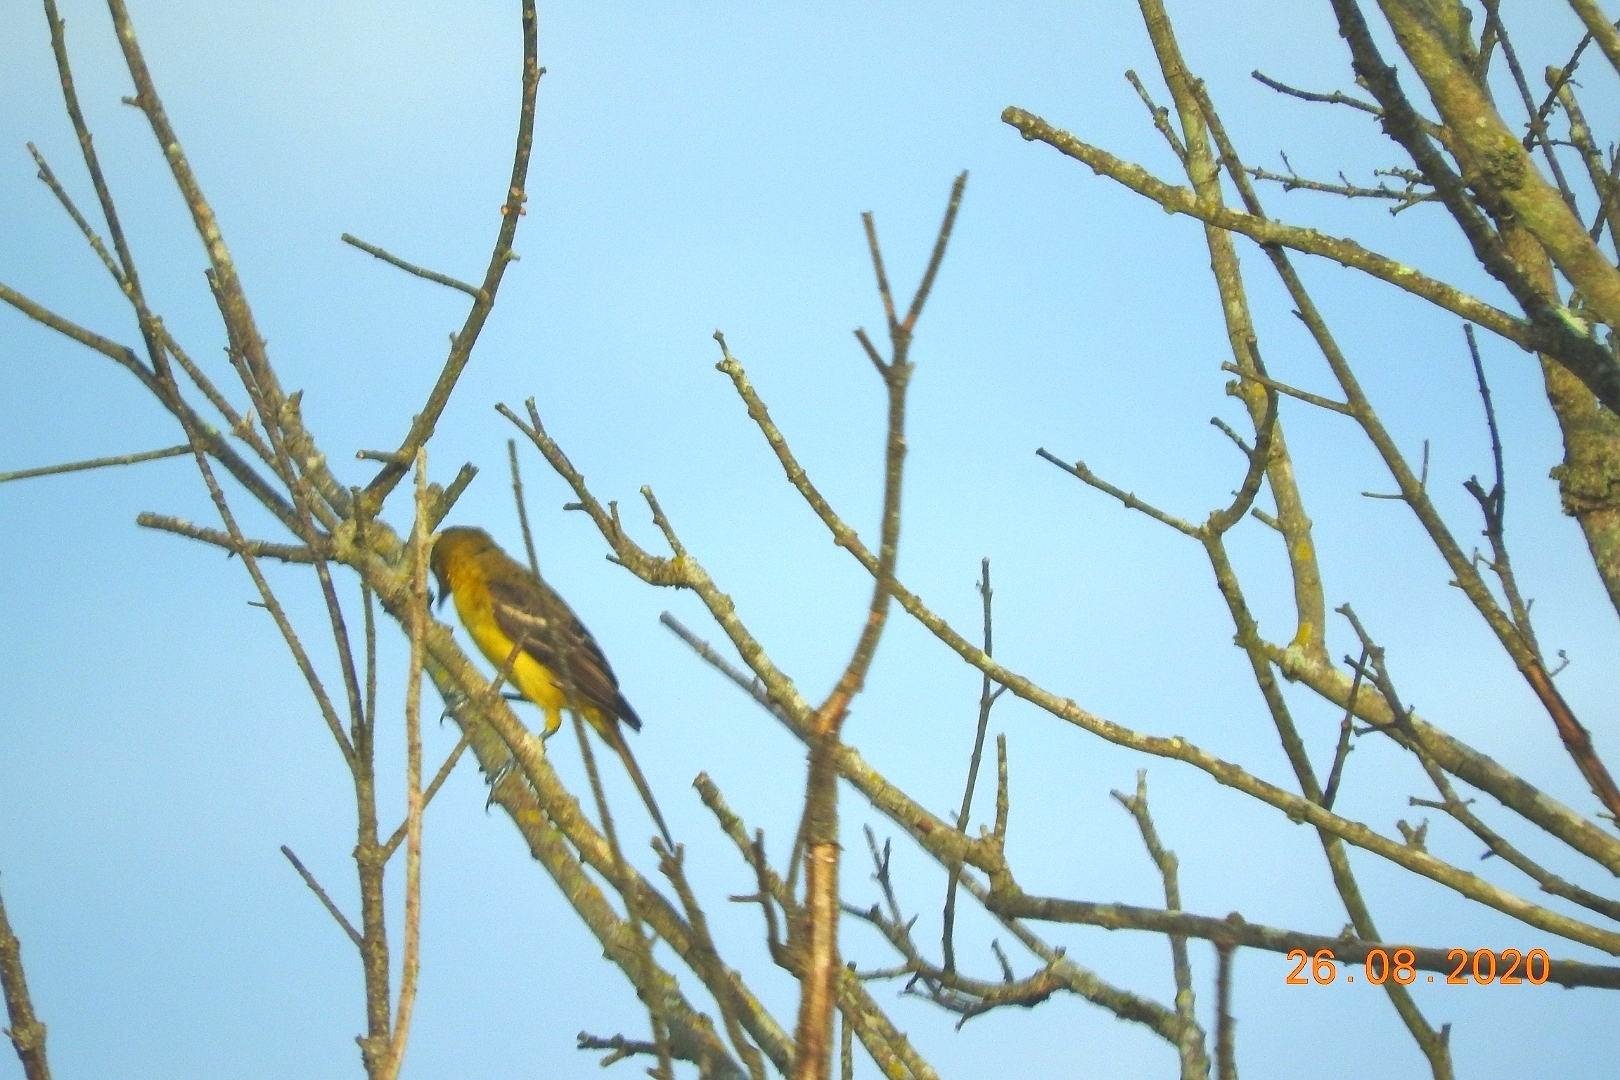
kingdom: Animalia
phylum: Chordata
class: Aves
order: Passeriformes
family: Icteridae
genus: Icterus
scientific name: Icterus cucullatus
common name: Hooded oriole
